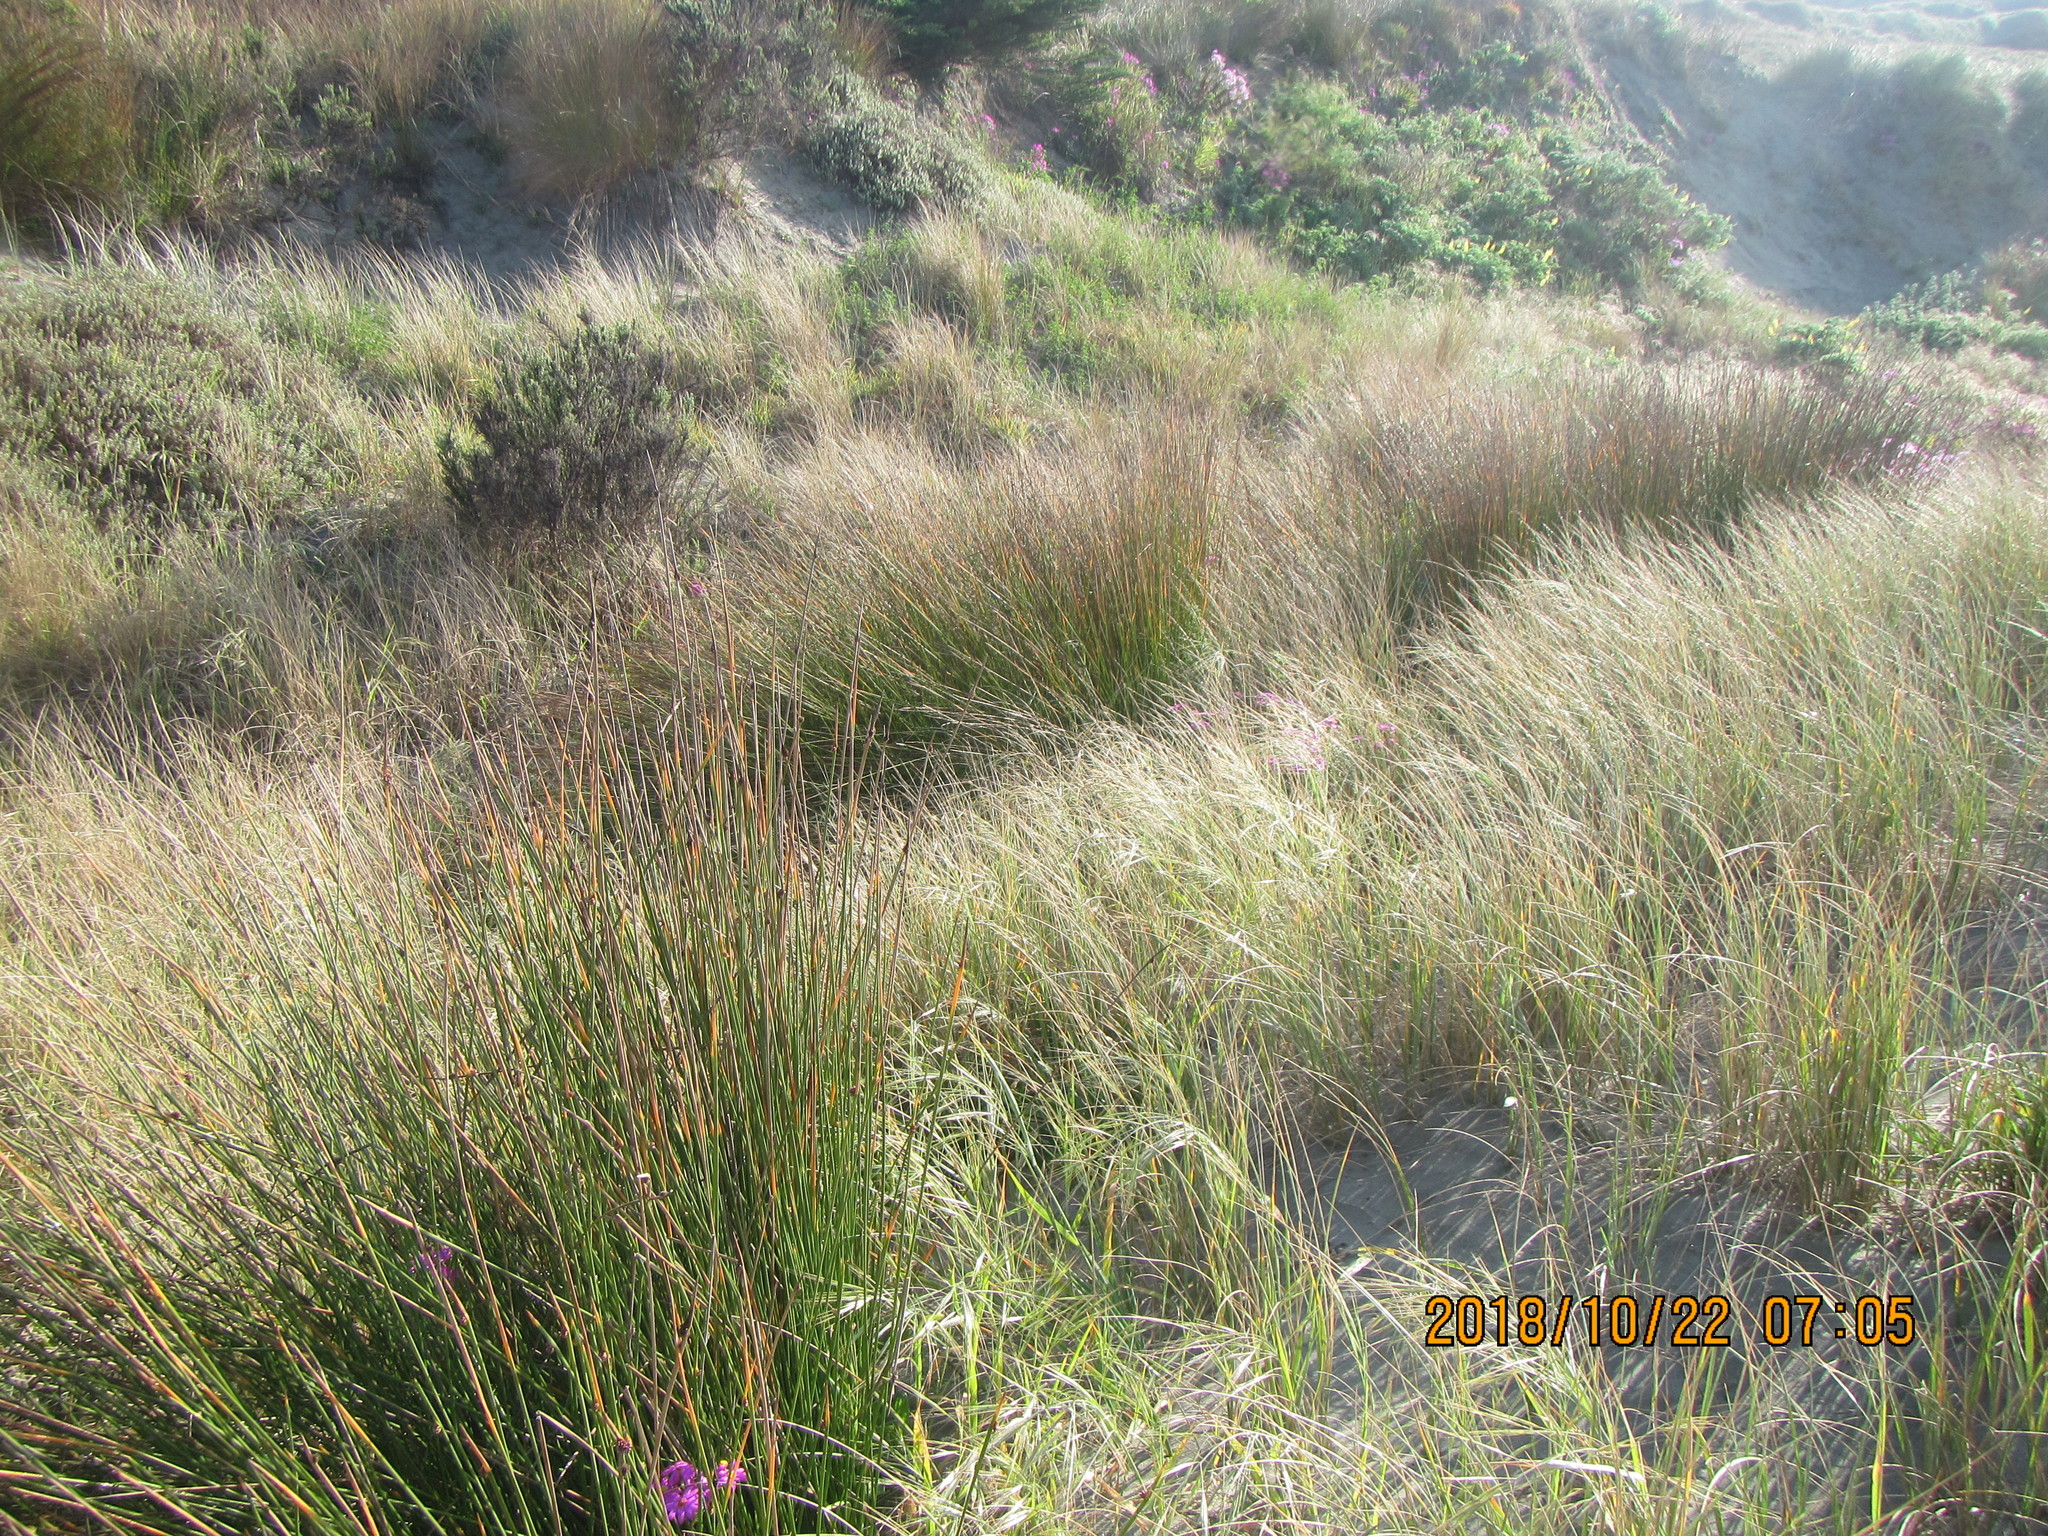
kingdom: Plantae
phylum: Tracheophyta
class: Magnoliopsida
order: Asterales
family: Asteraceae
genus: Ozothamnus
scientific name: Ozothamnus leptophyllus
